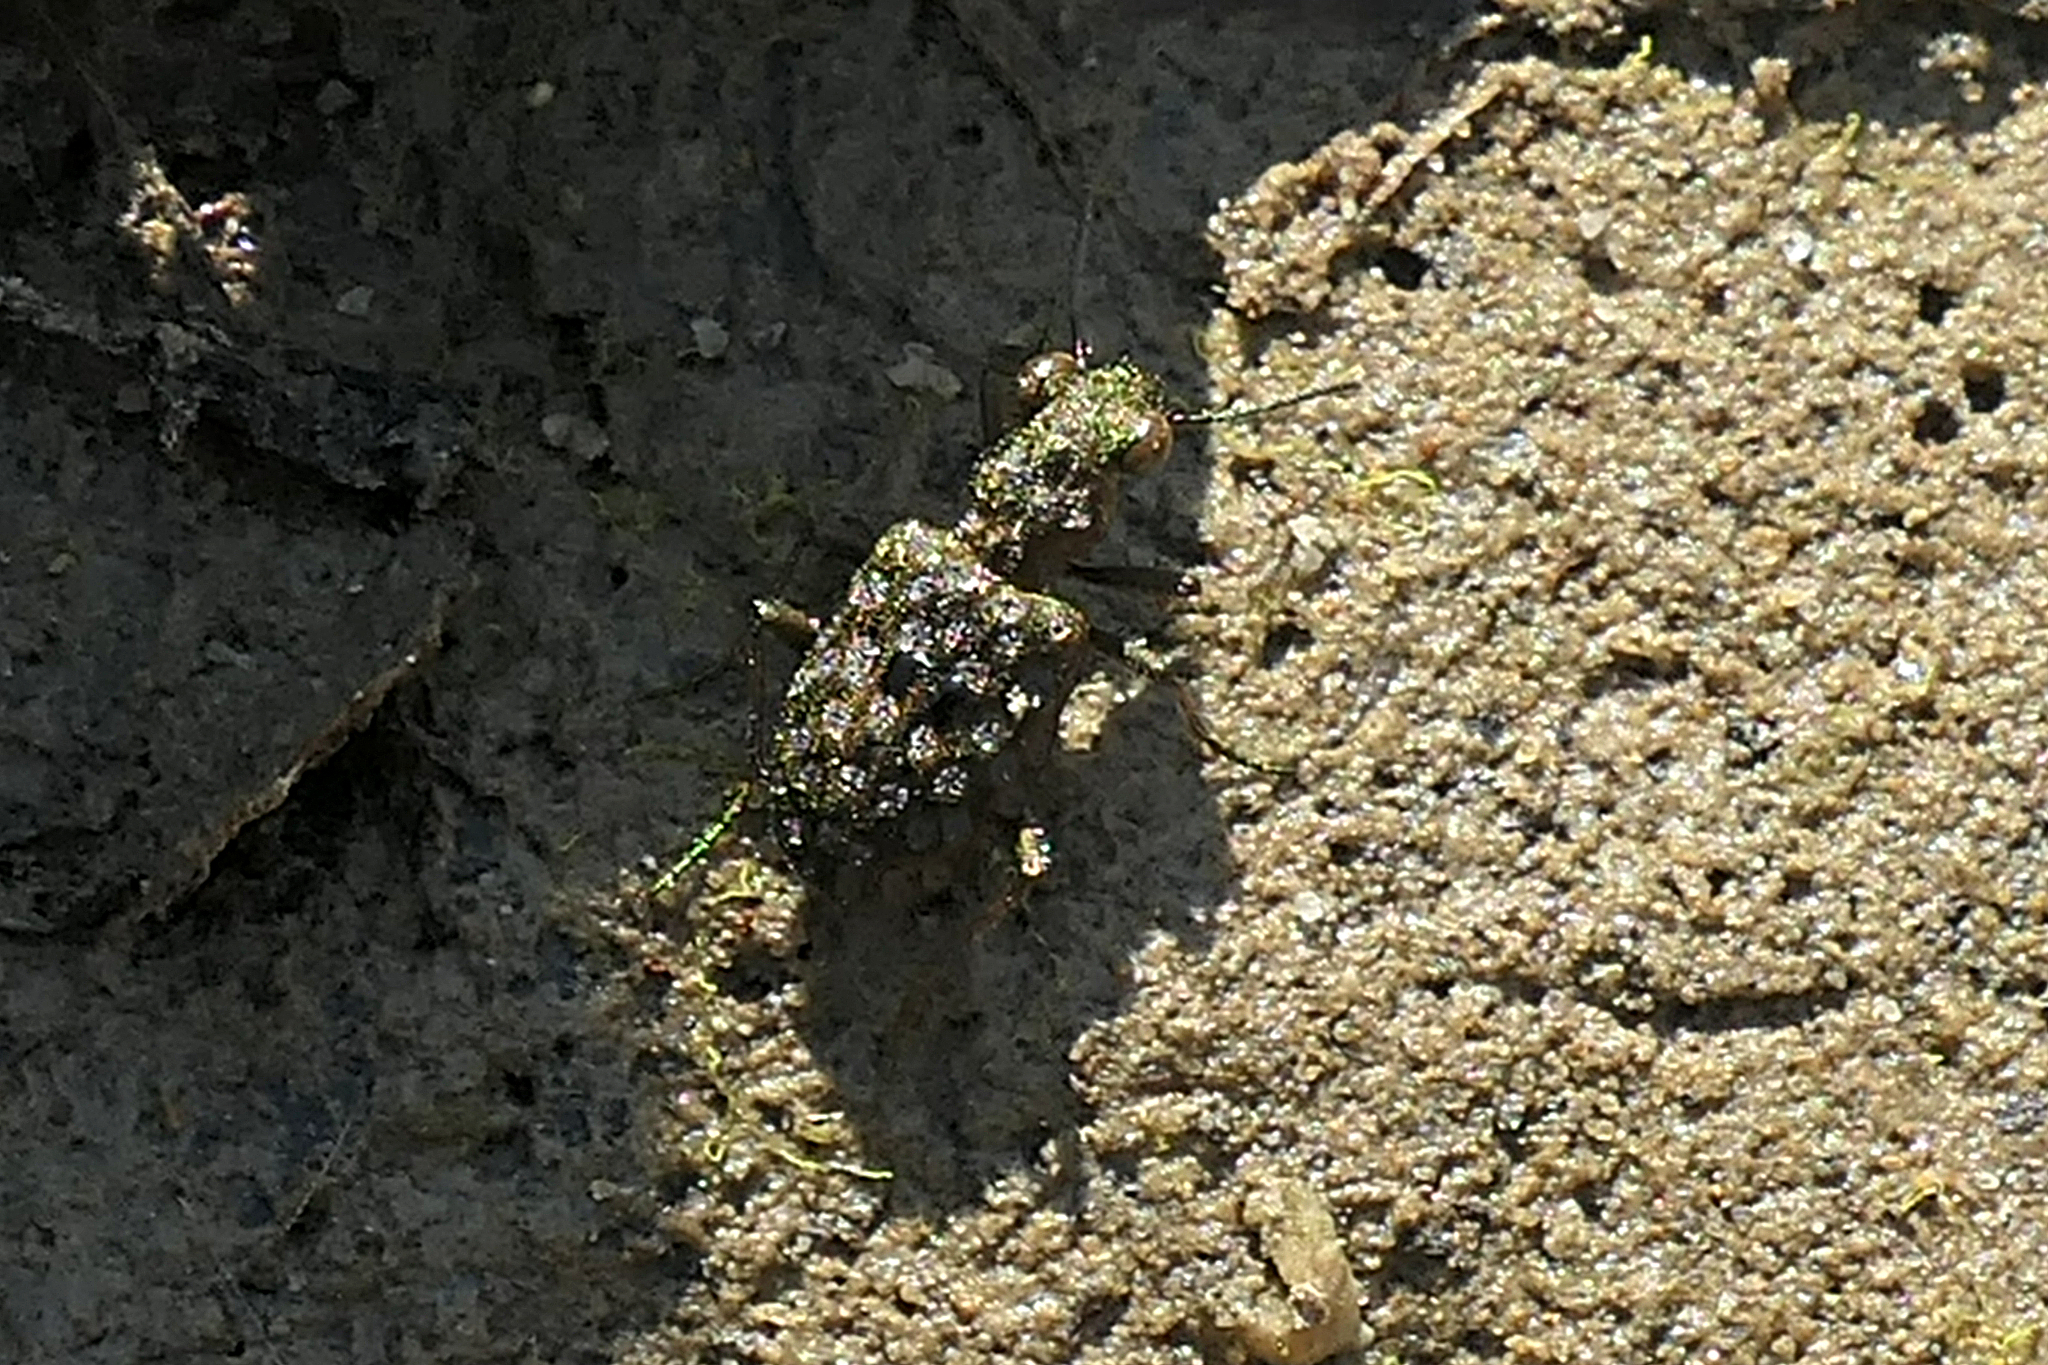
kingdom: Animalia
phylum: Arthropoda
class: Insecta
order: Coleoptera
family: Carabidae
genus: Elaphrus
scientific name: Elaphrus ruscarius
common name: Shore ground beetle
